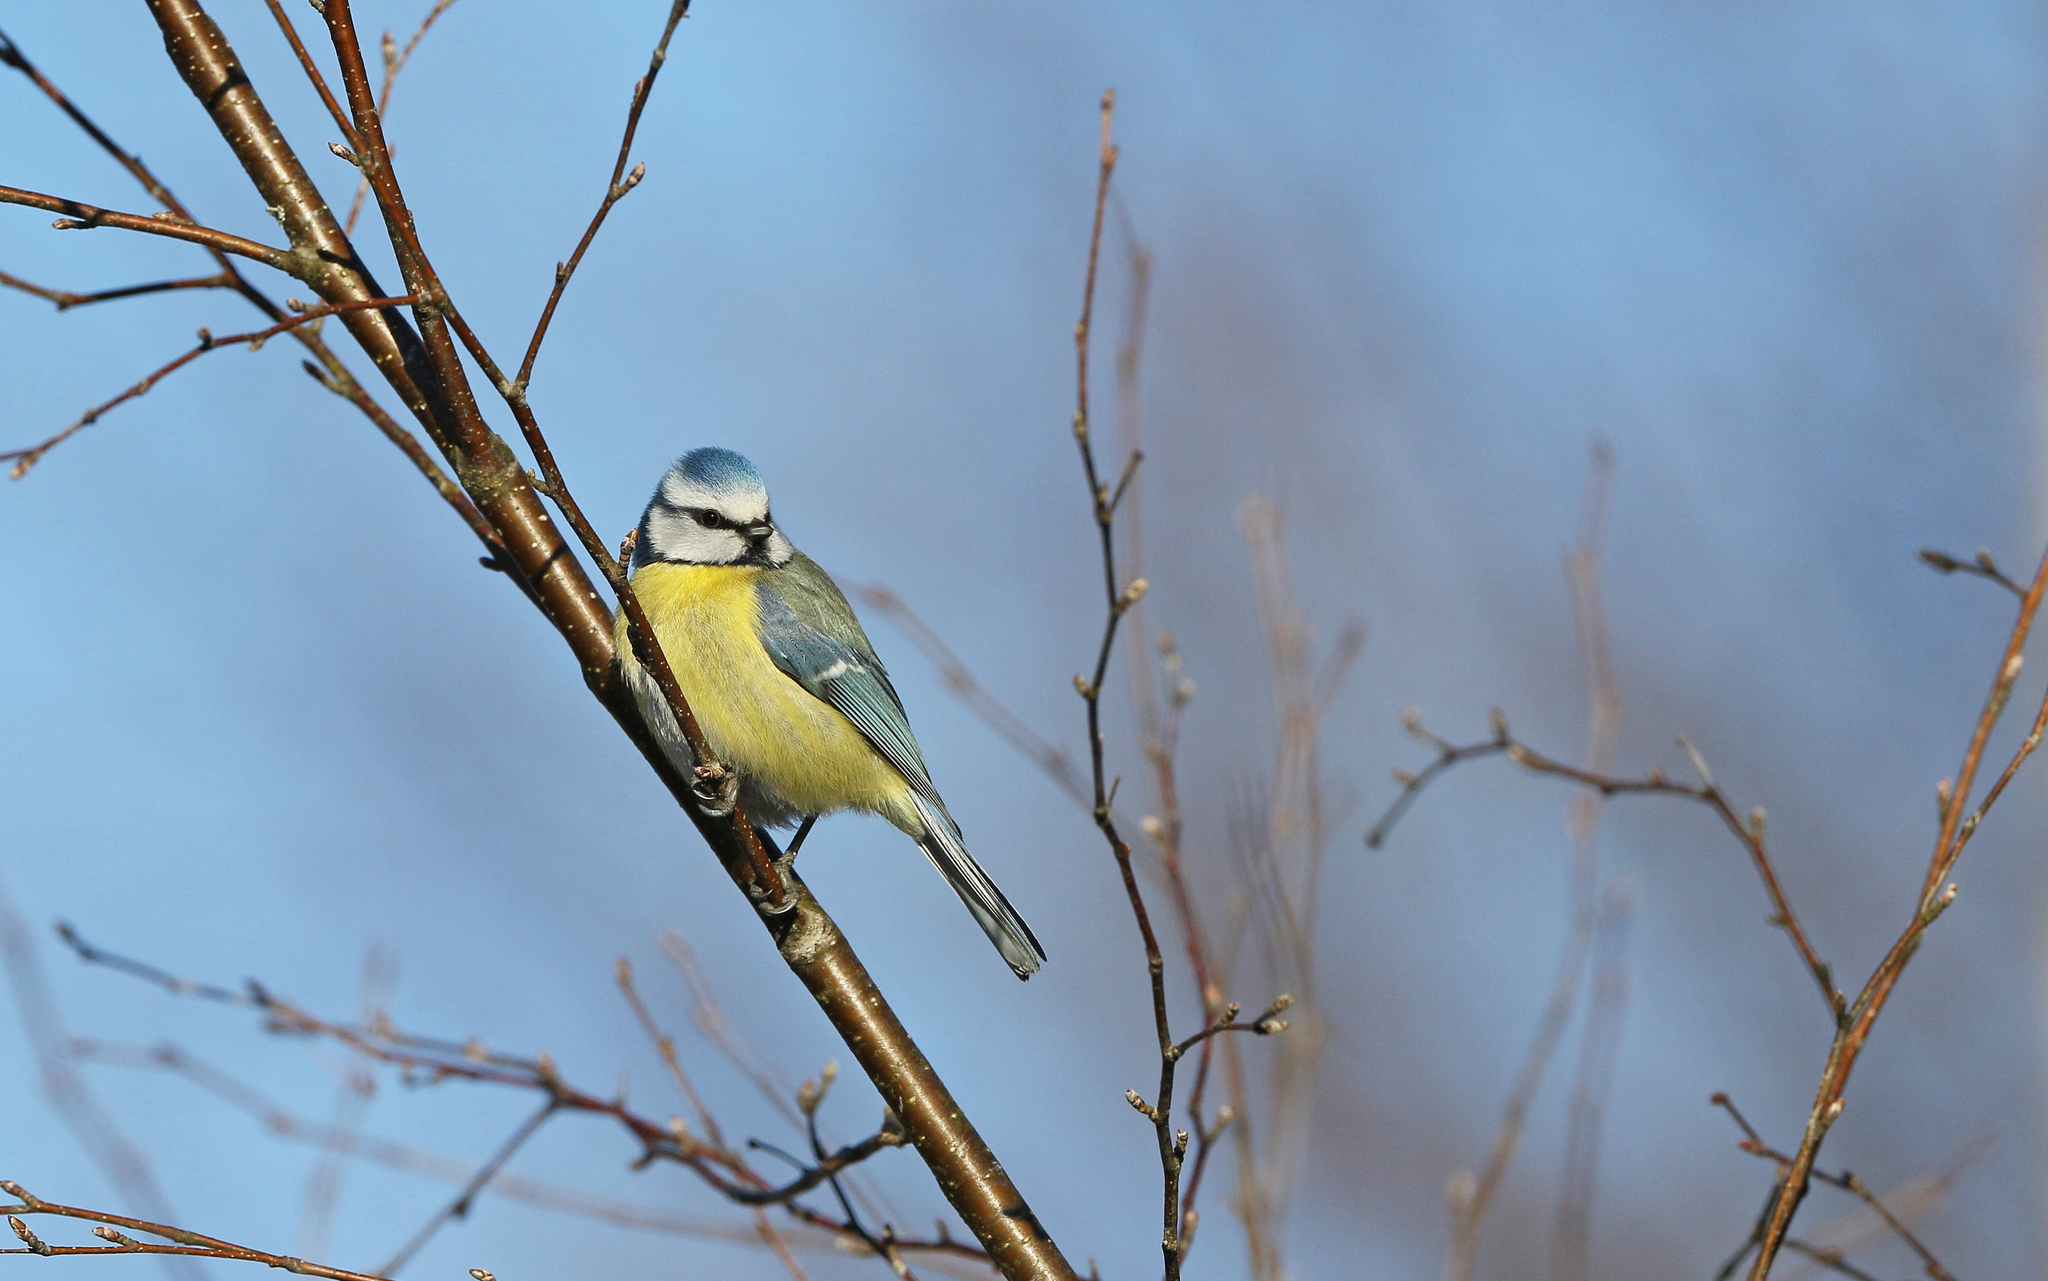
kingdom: Animalia
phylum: Chordata
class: Aves
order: Passeriformes
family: Paridae
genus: Cyanistes
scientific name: Cyanistes caeruleus
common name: Eurasian blue tit
